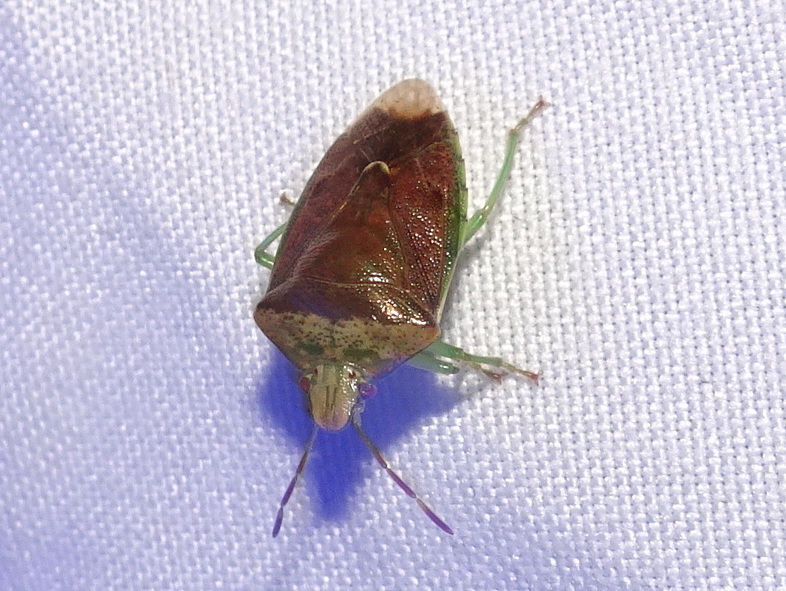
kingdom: Animalia
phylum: Arthropoda
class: Insecta
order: Hemiptera
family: Pentatomidae
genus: Banasa
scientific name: Banasa calva
